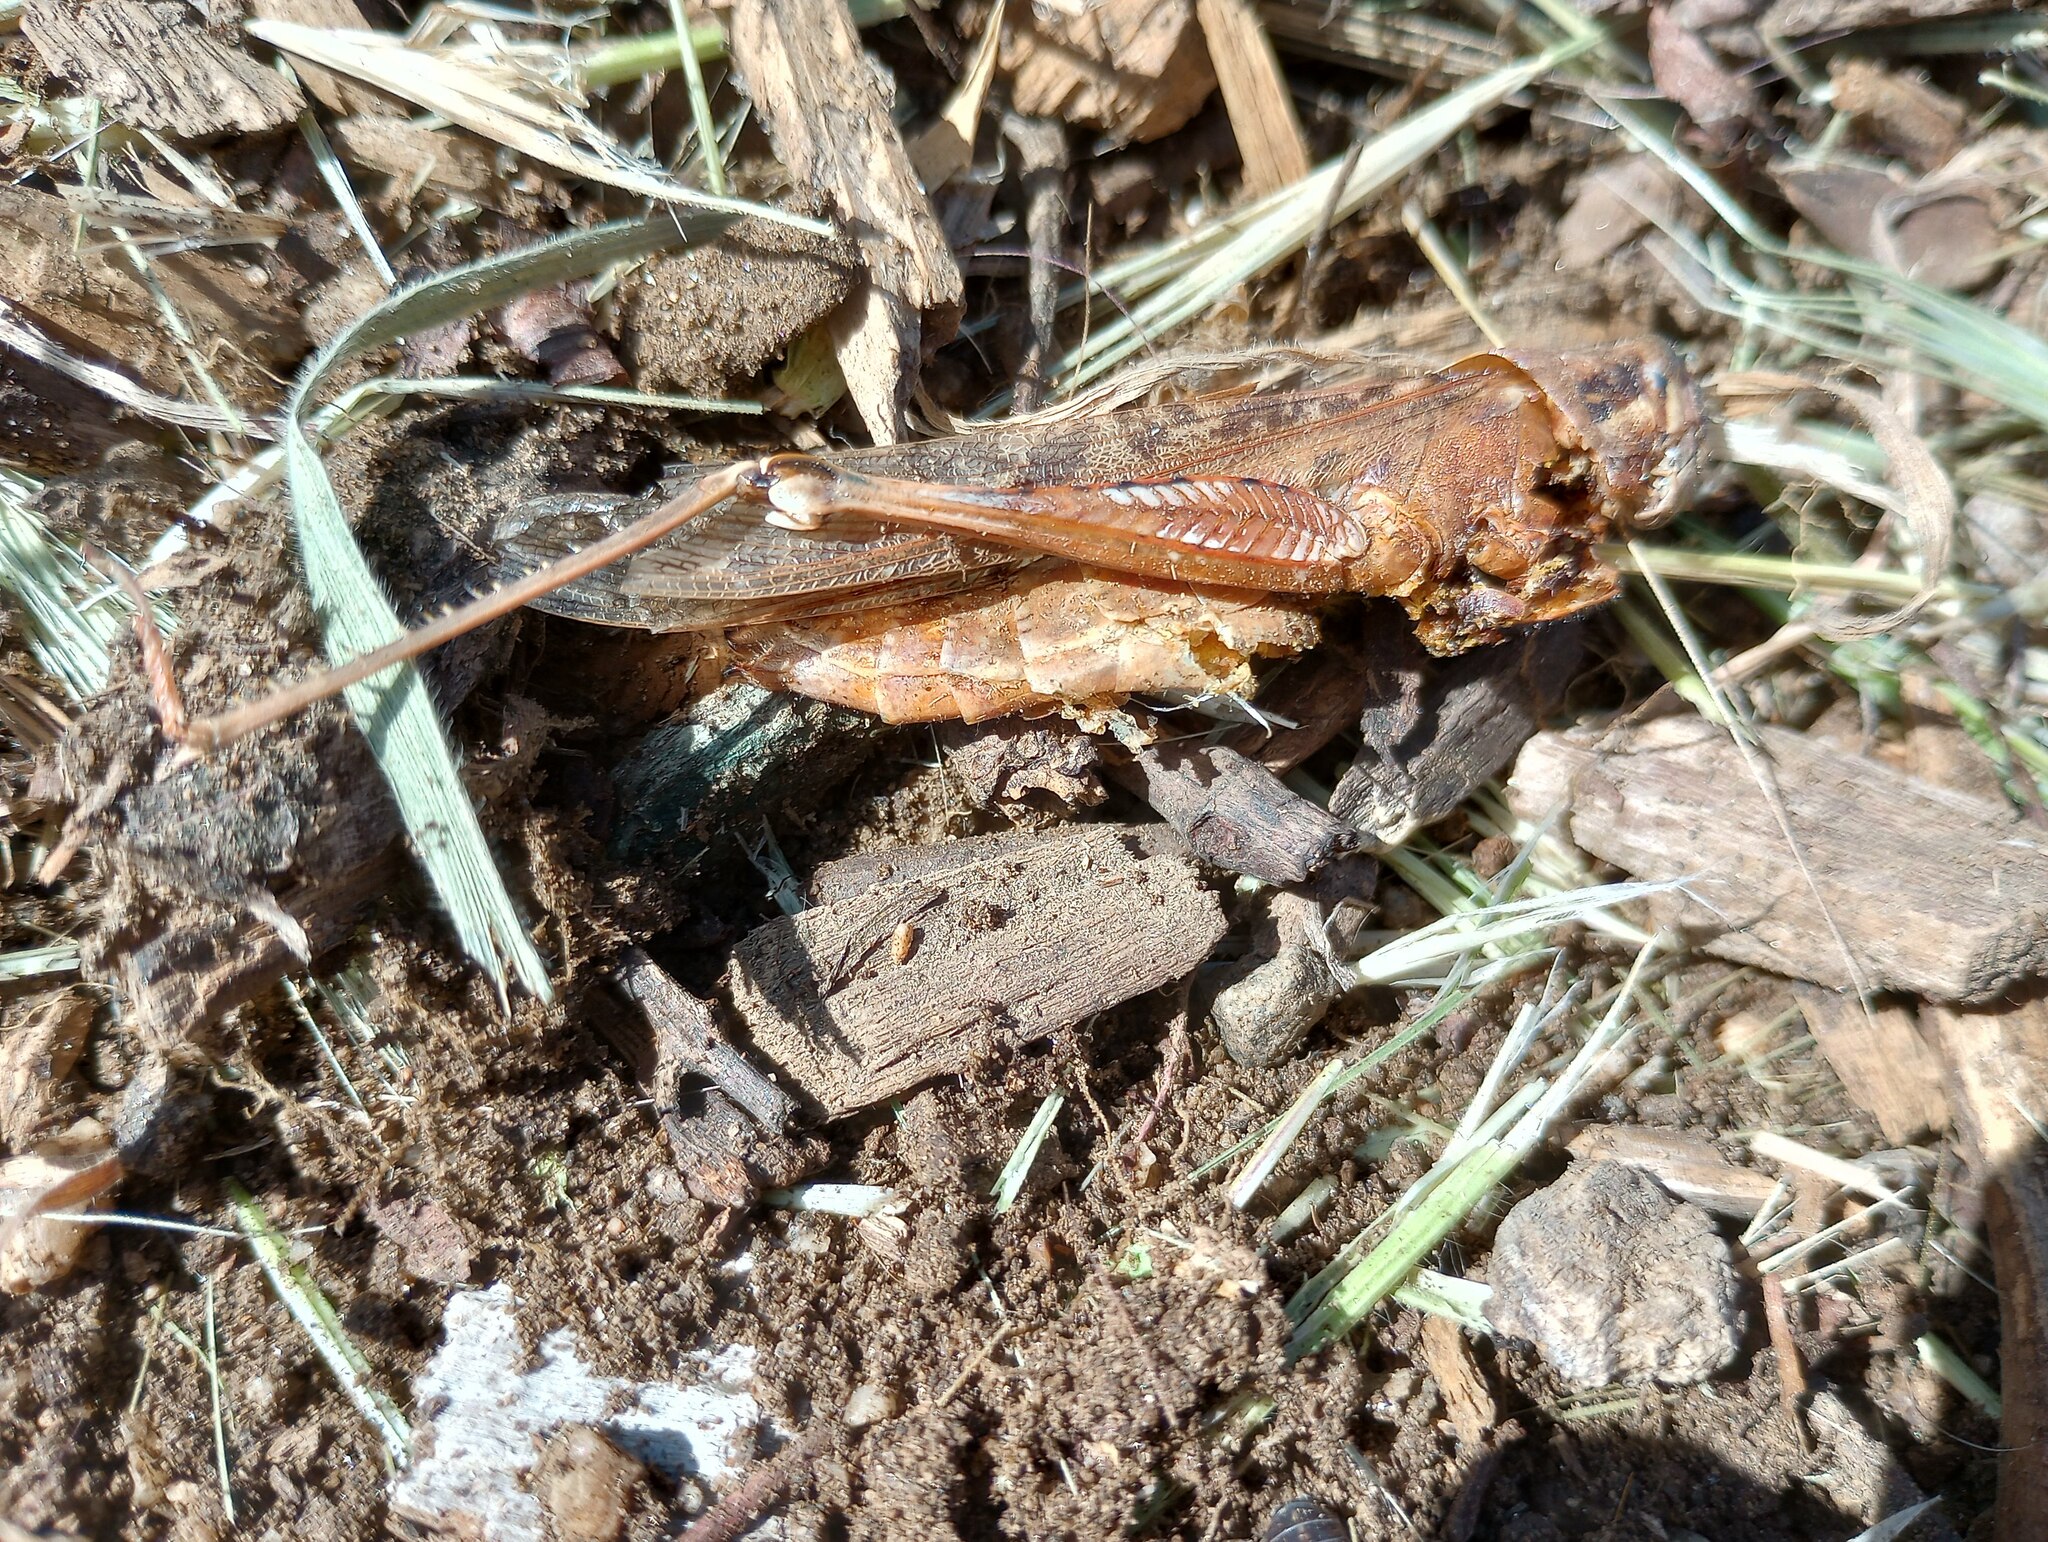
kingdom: Animalia
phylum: Arthropoda
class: Insecta
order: Orthoptera
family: Acrididae
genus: Schistocerca
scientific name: Schistocerca nitens
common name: Vagrant grasshopper
